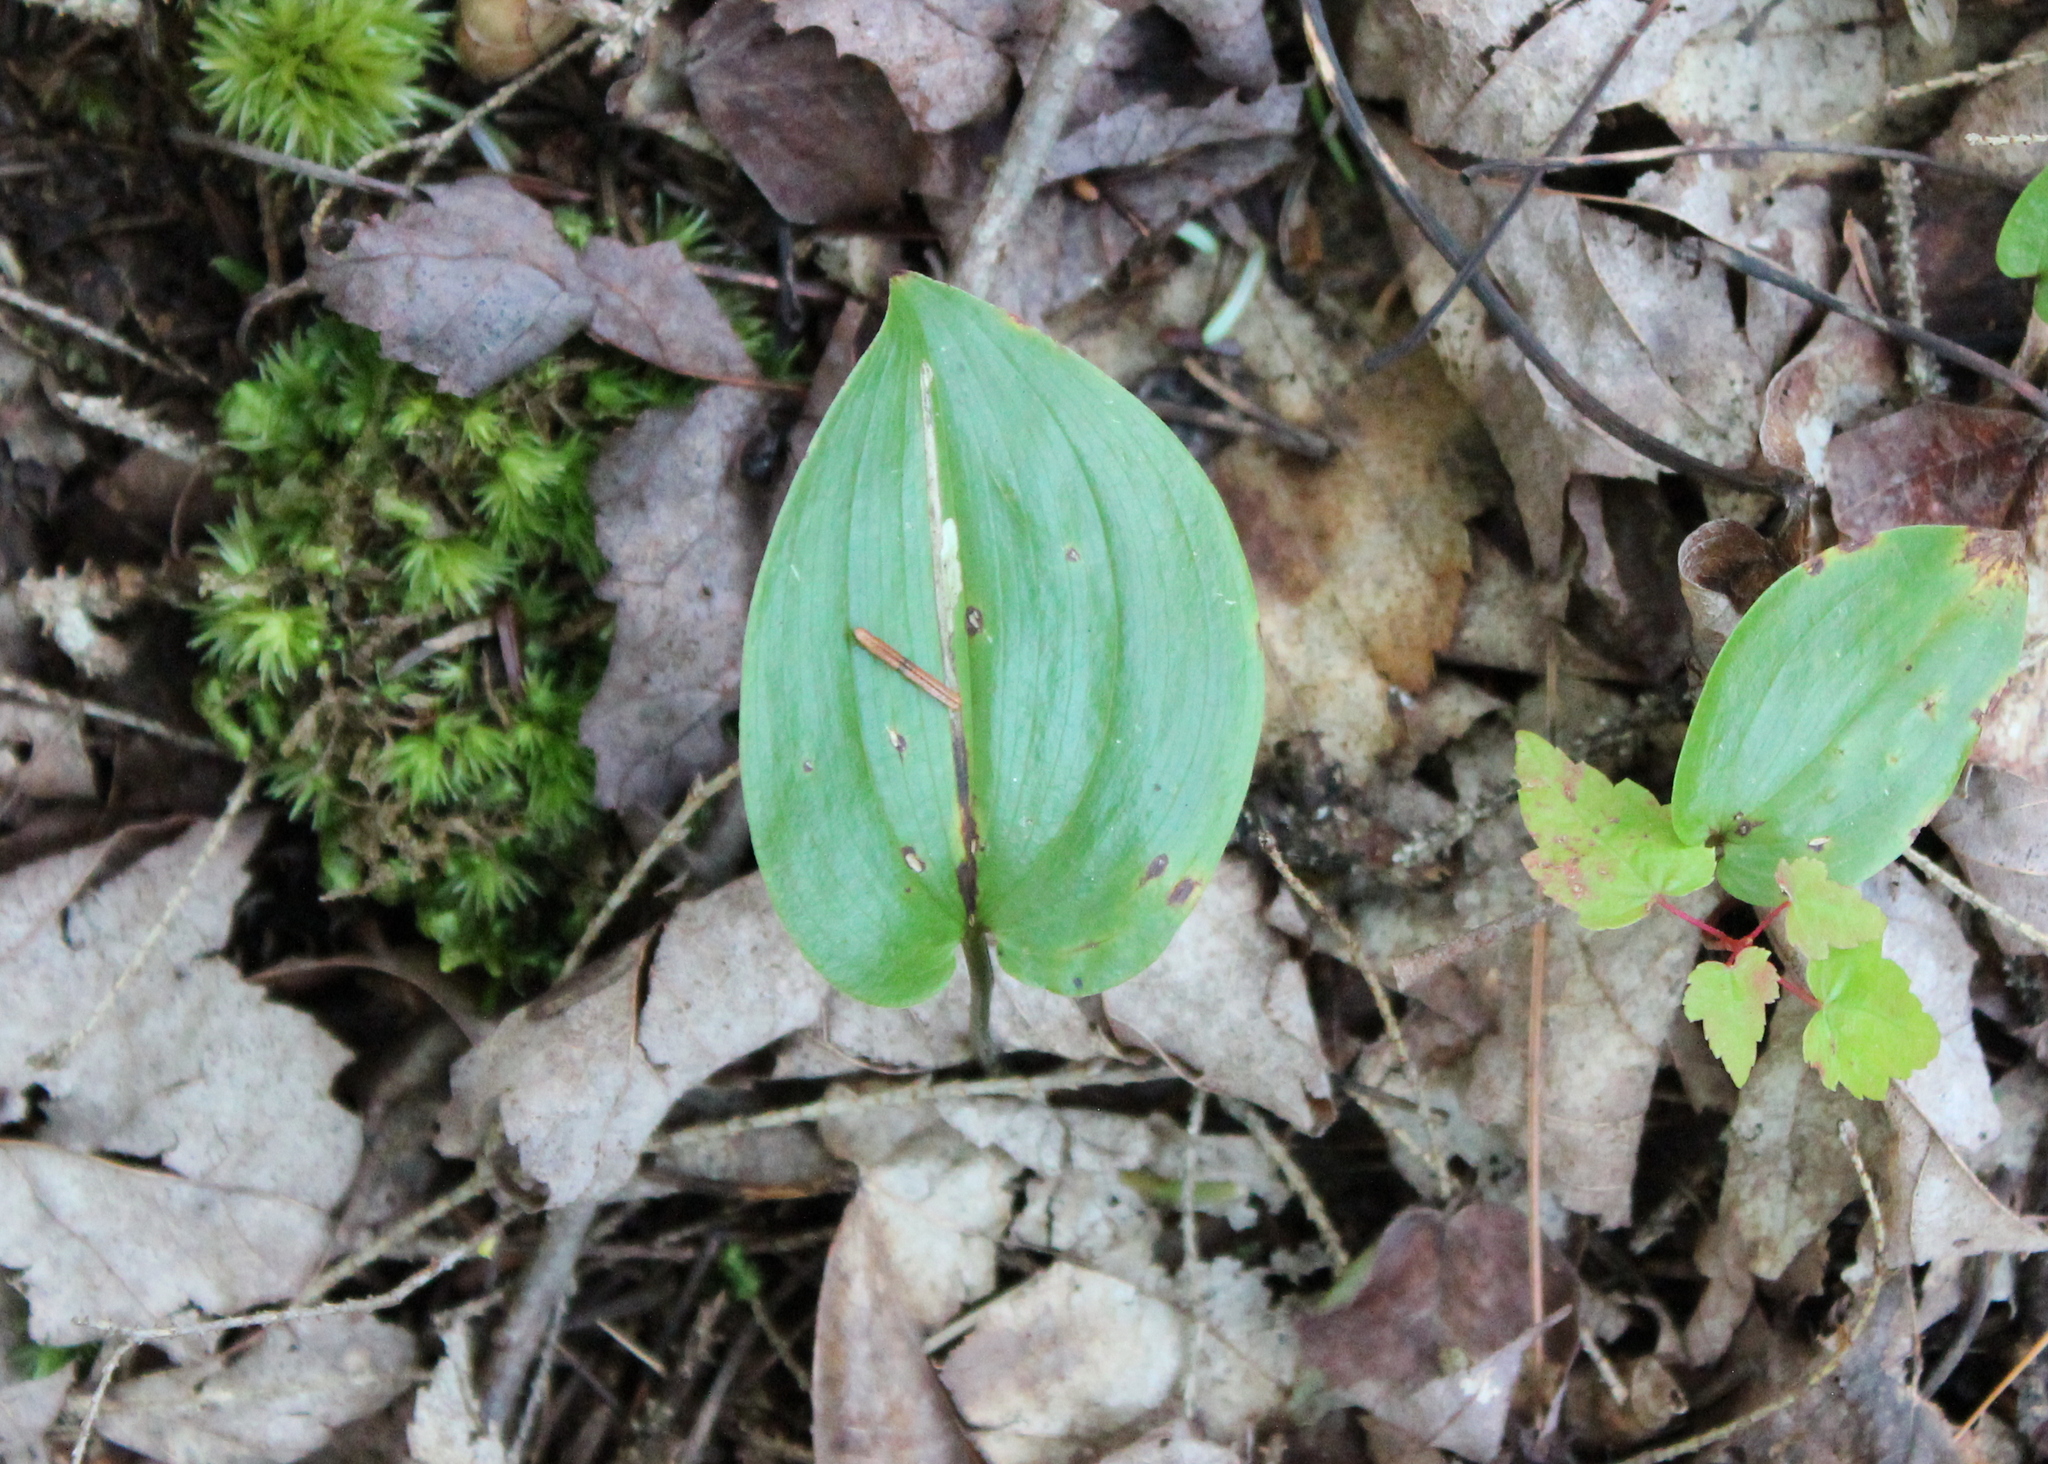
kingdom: Plantae
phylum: Tracheophyta
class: Liliopsida
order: Asparagales
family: Asparagaceae
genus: Maianthemum
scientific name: Maianthemum canadense
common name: False lily-of-the-valley
